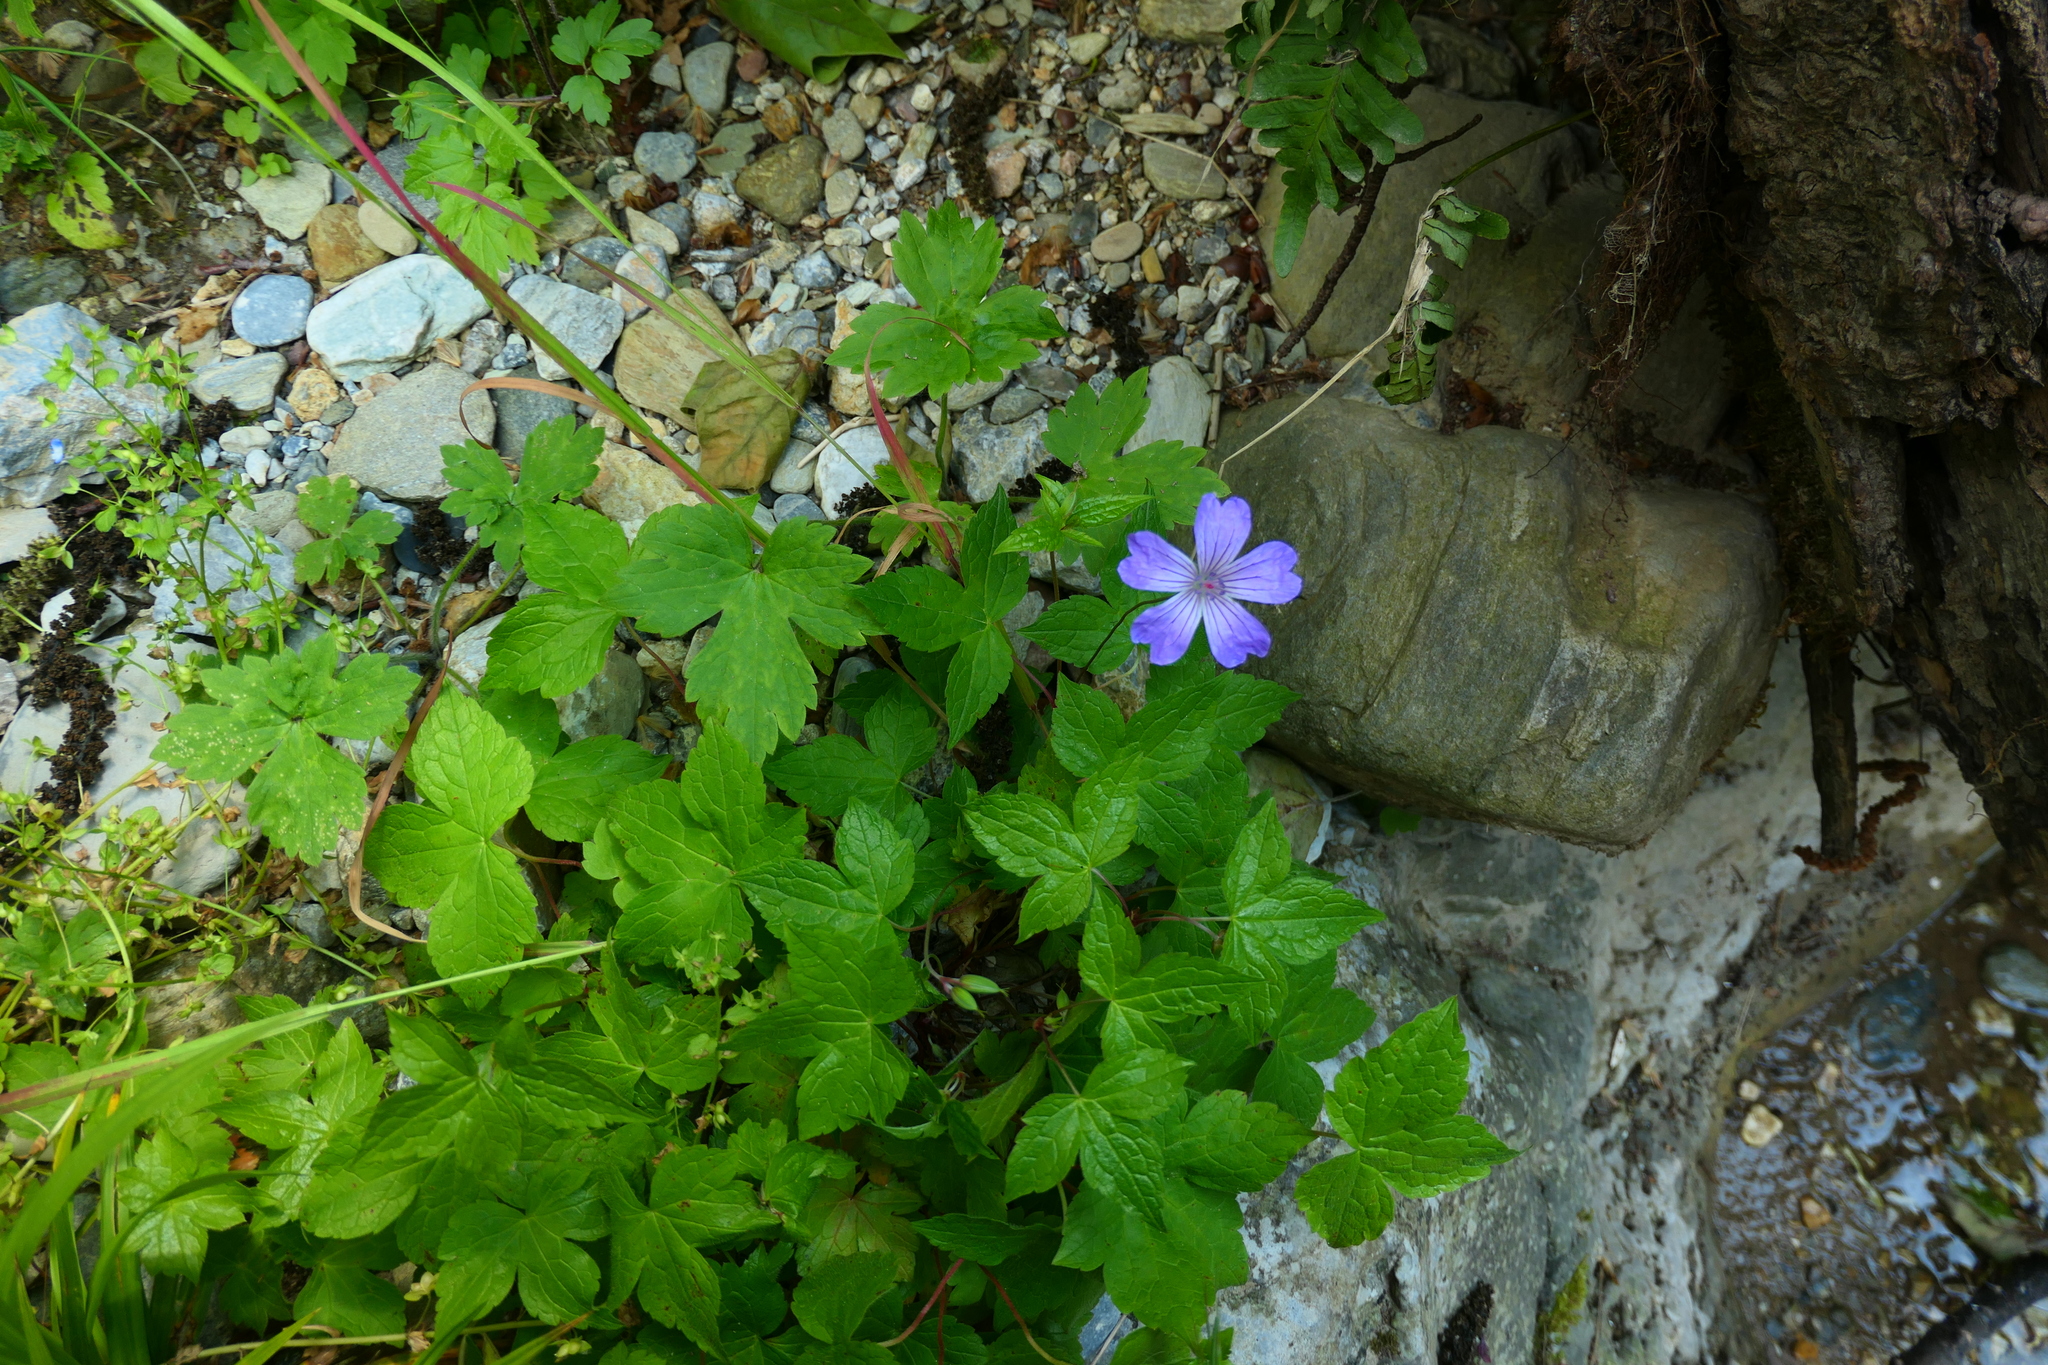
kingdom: Plantae
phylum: Tracheophyta
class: Magnoliopsida
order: Geraniales
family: Geraniaceae
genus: Geranium
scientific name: Geranium nodosum
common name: Knotted crane's-bill
